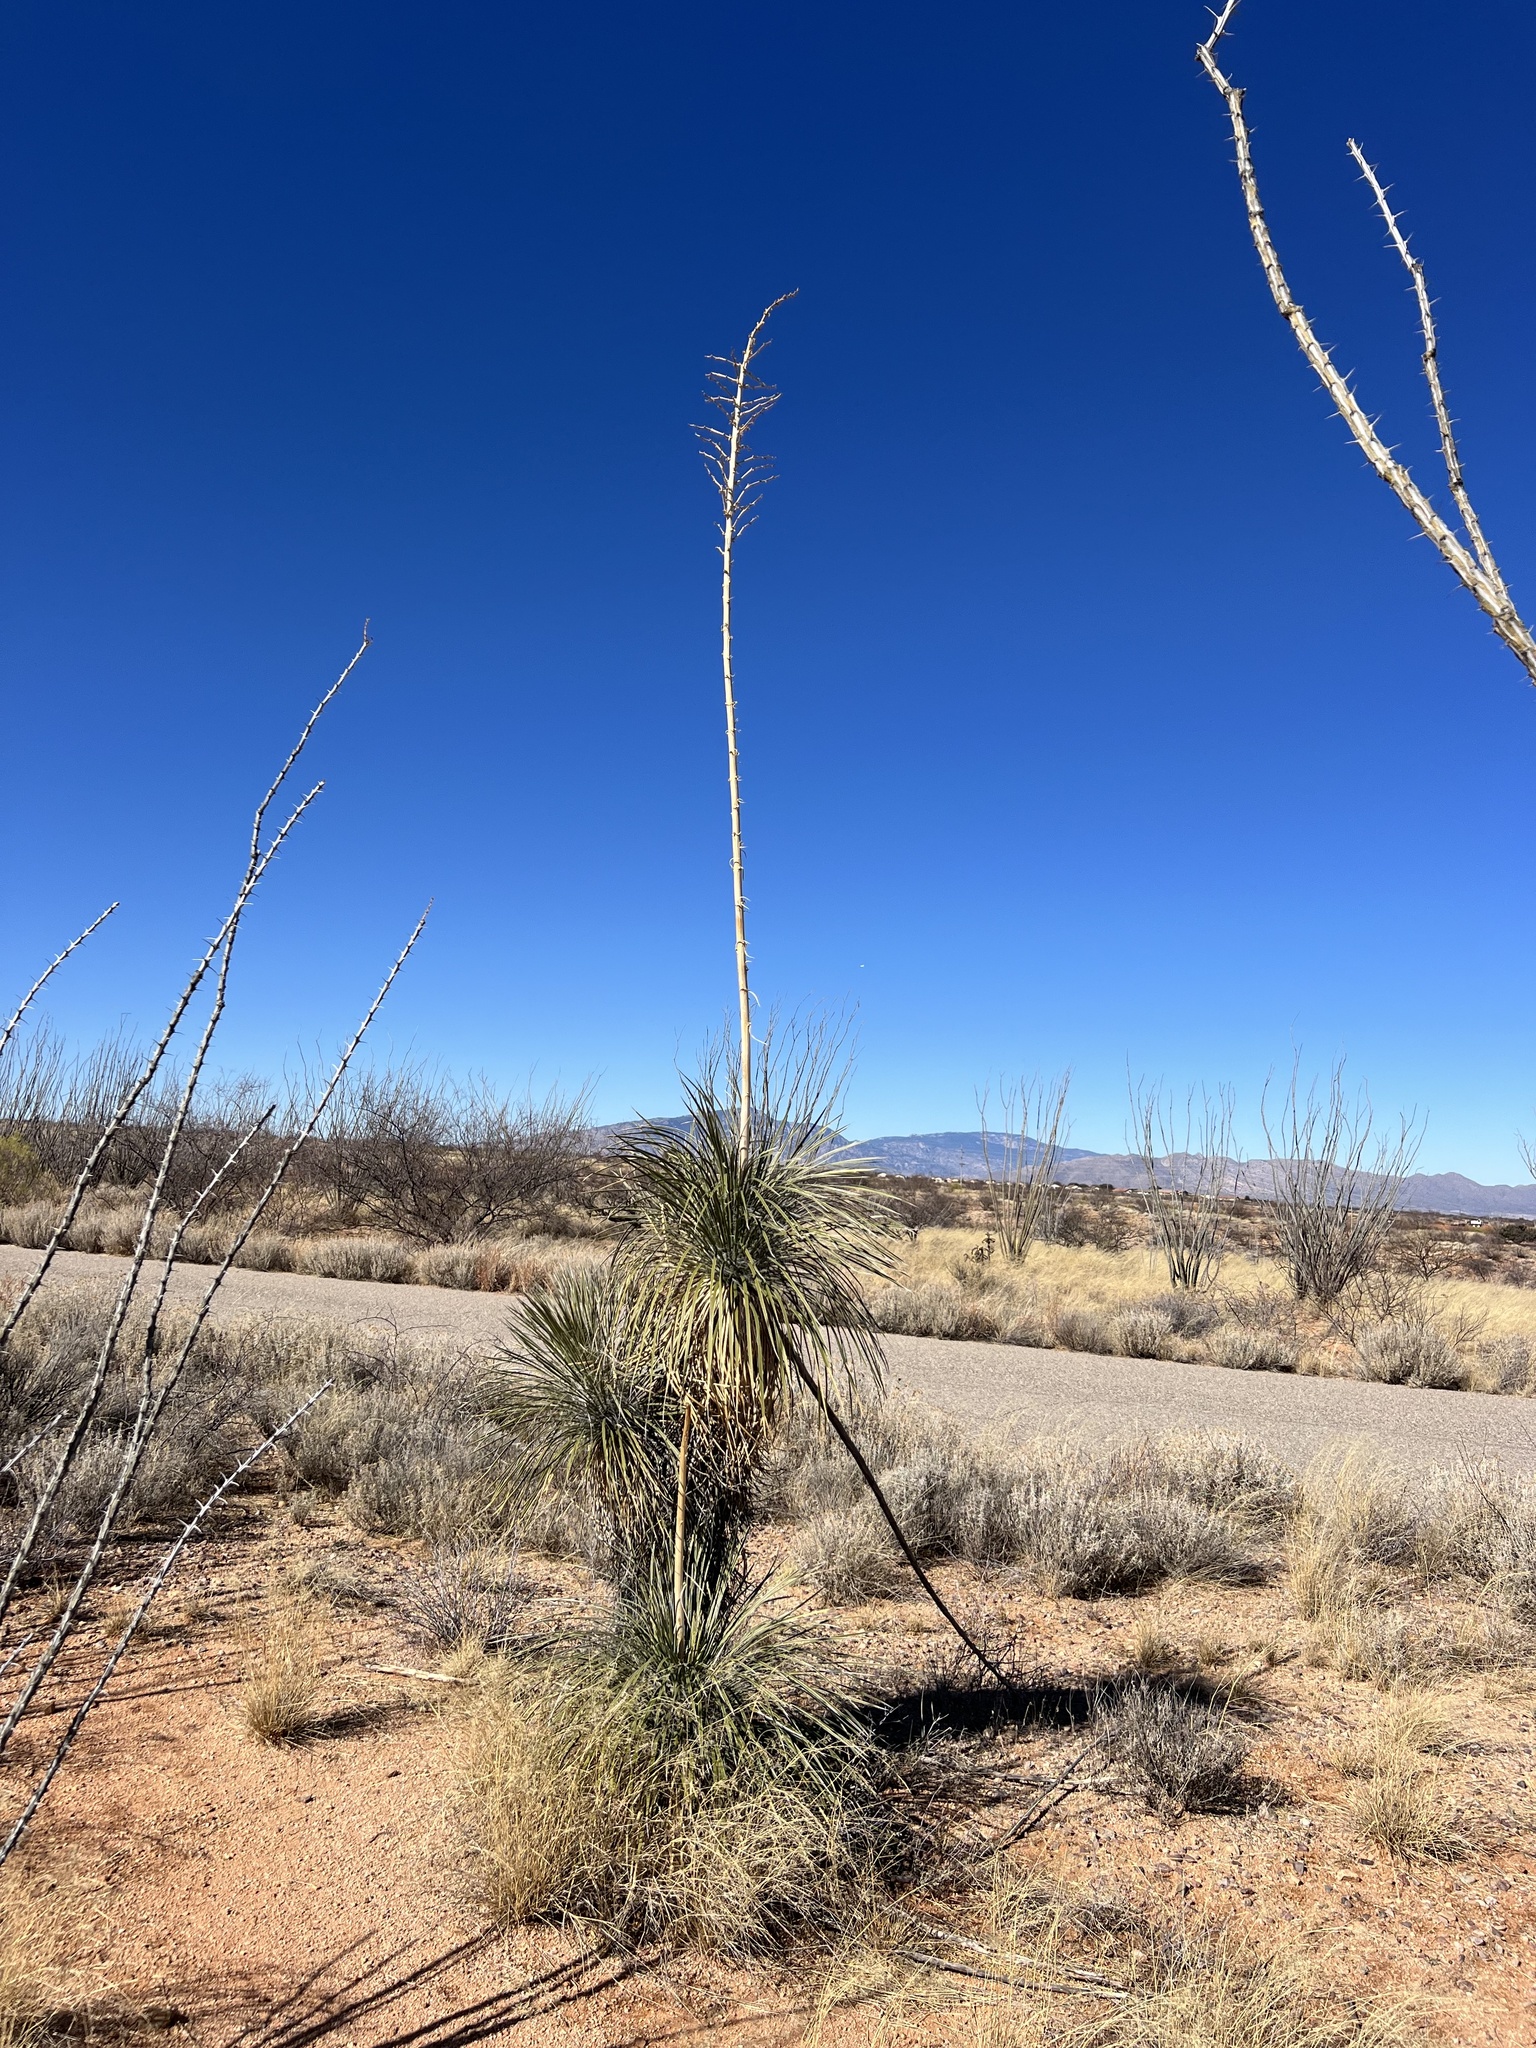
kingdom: Plantae
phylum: Tracheophyta
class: Liliopsida
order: Asparagales
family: Asparagaceae
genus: Yucca
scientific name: Yucca elata
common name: Palmella
